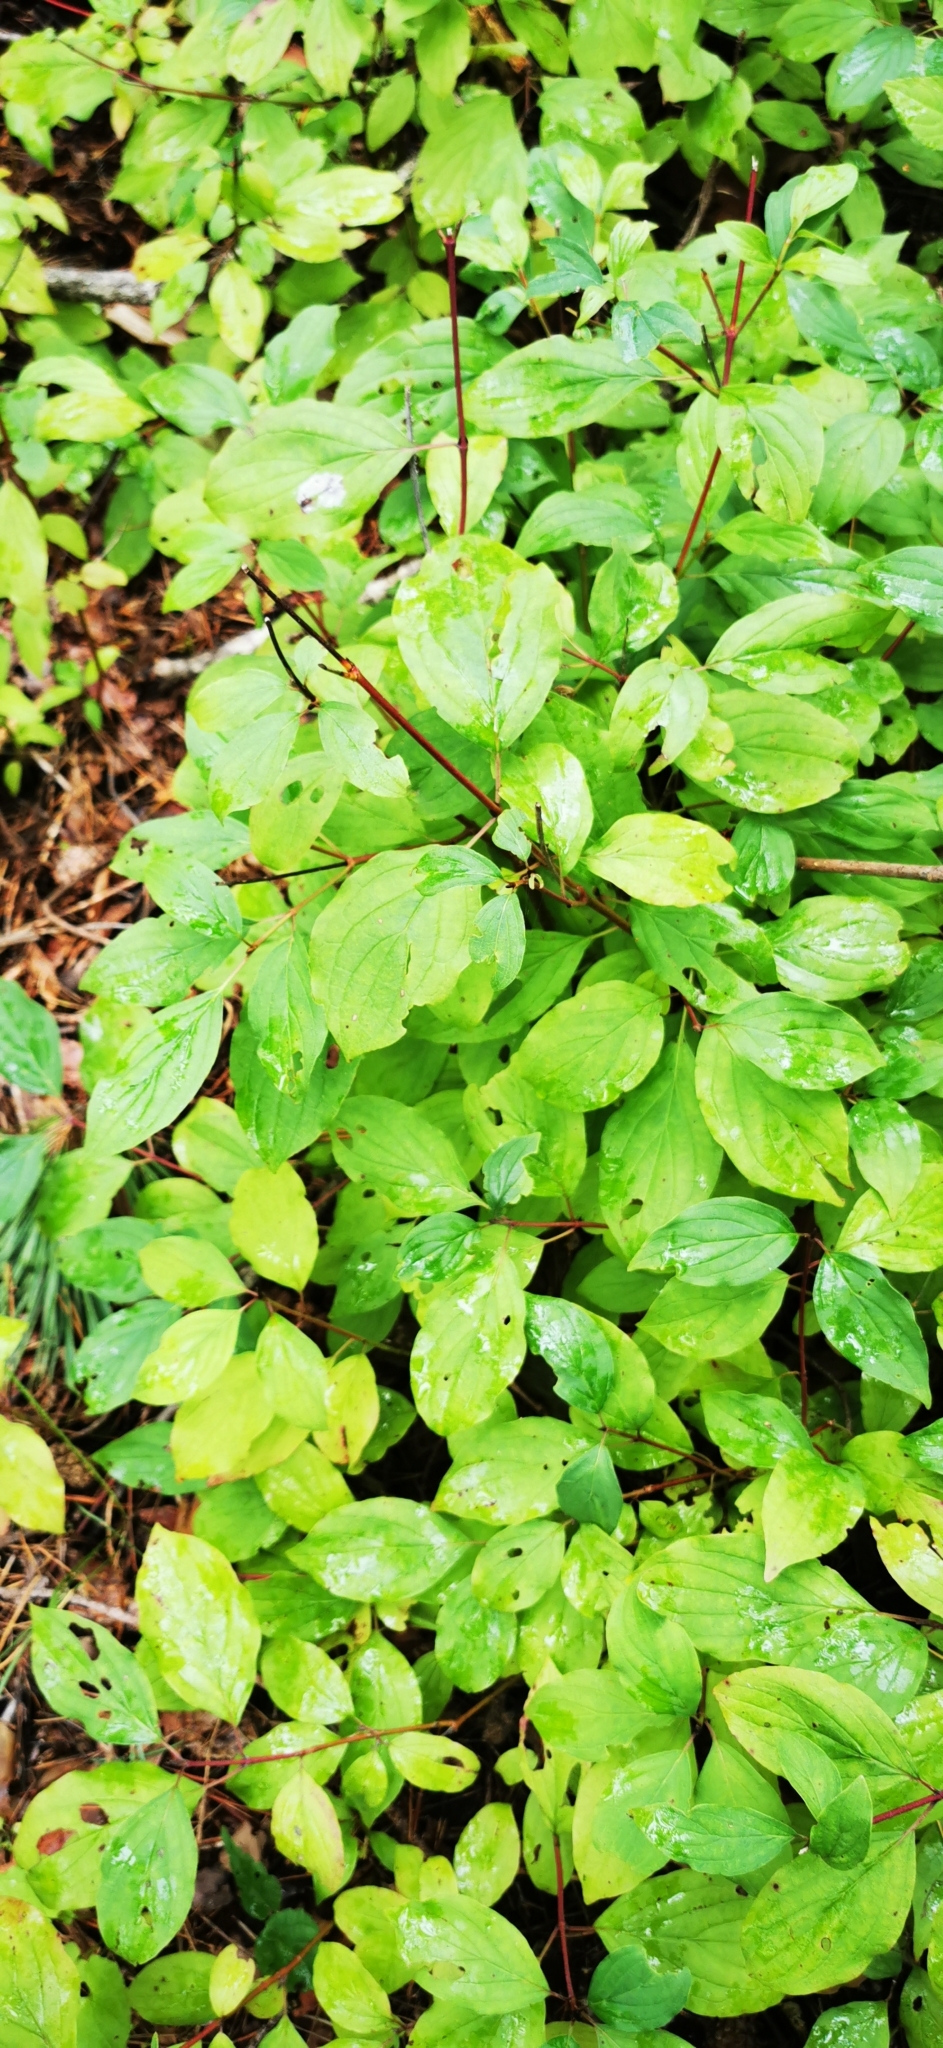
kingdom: Plantae
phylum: Tracheophyta
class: Magnoliopsida
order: Cornales
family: Cornaceae
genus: Cornus
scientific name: Cornus alba
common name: White dogwood
